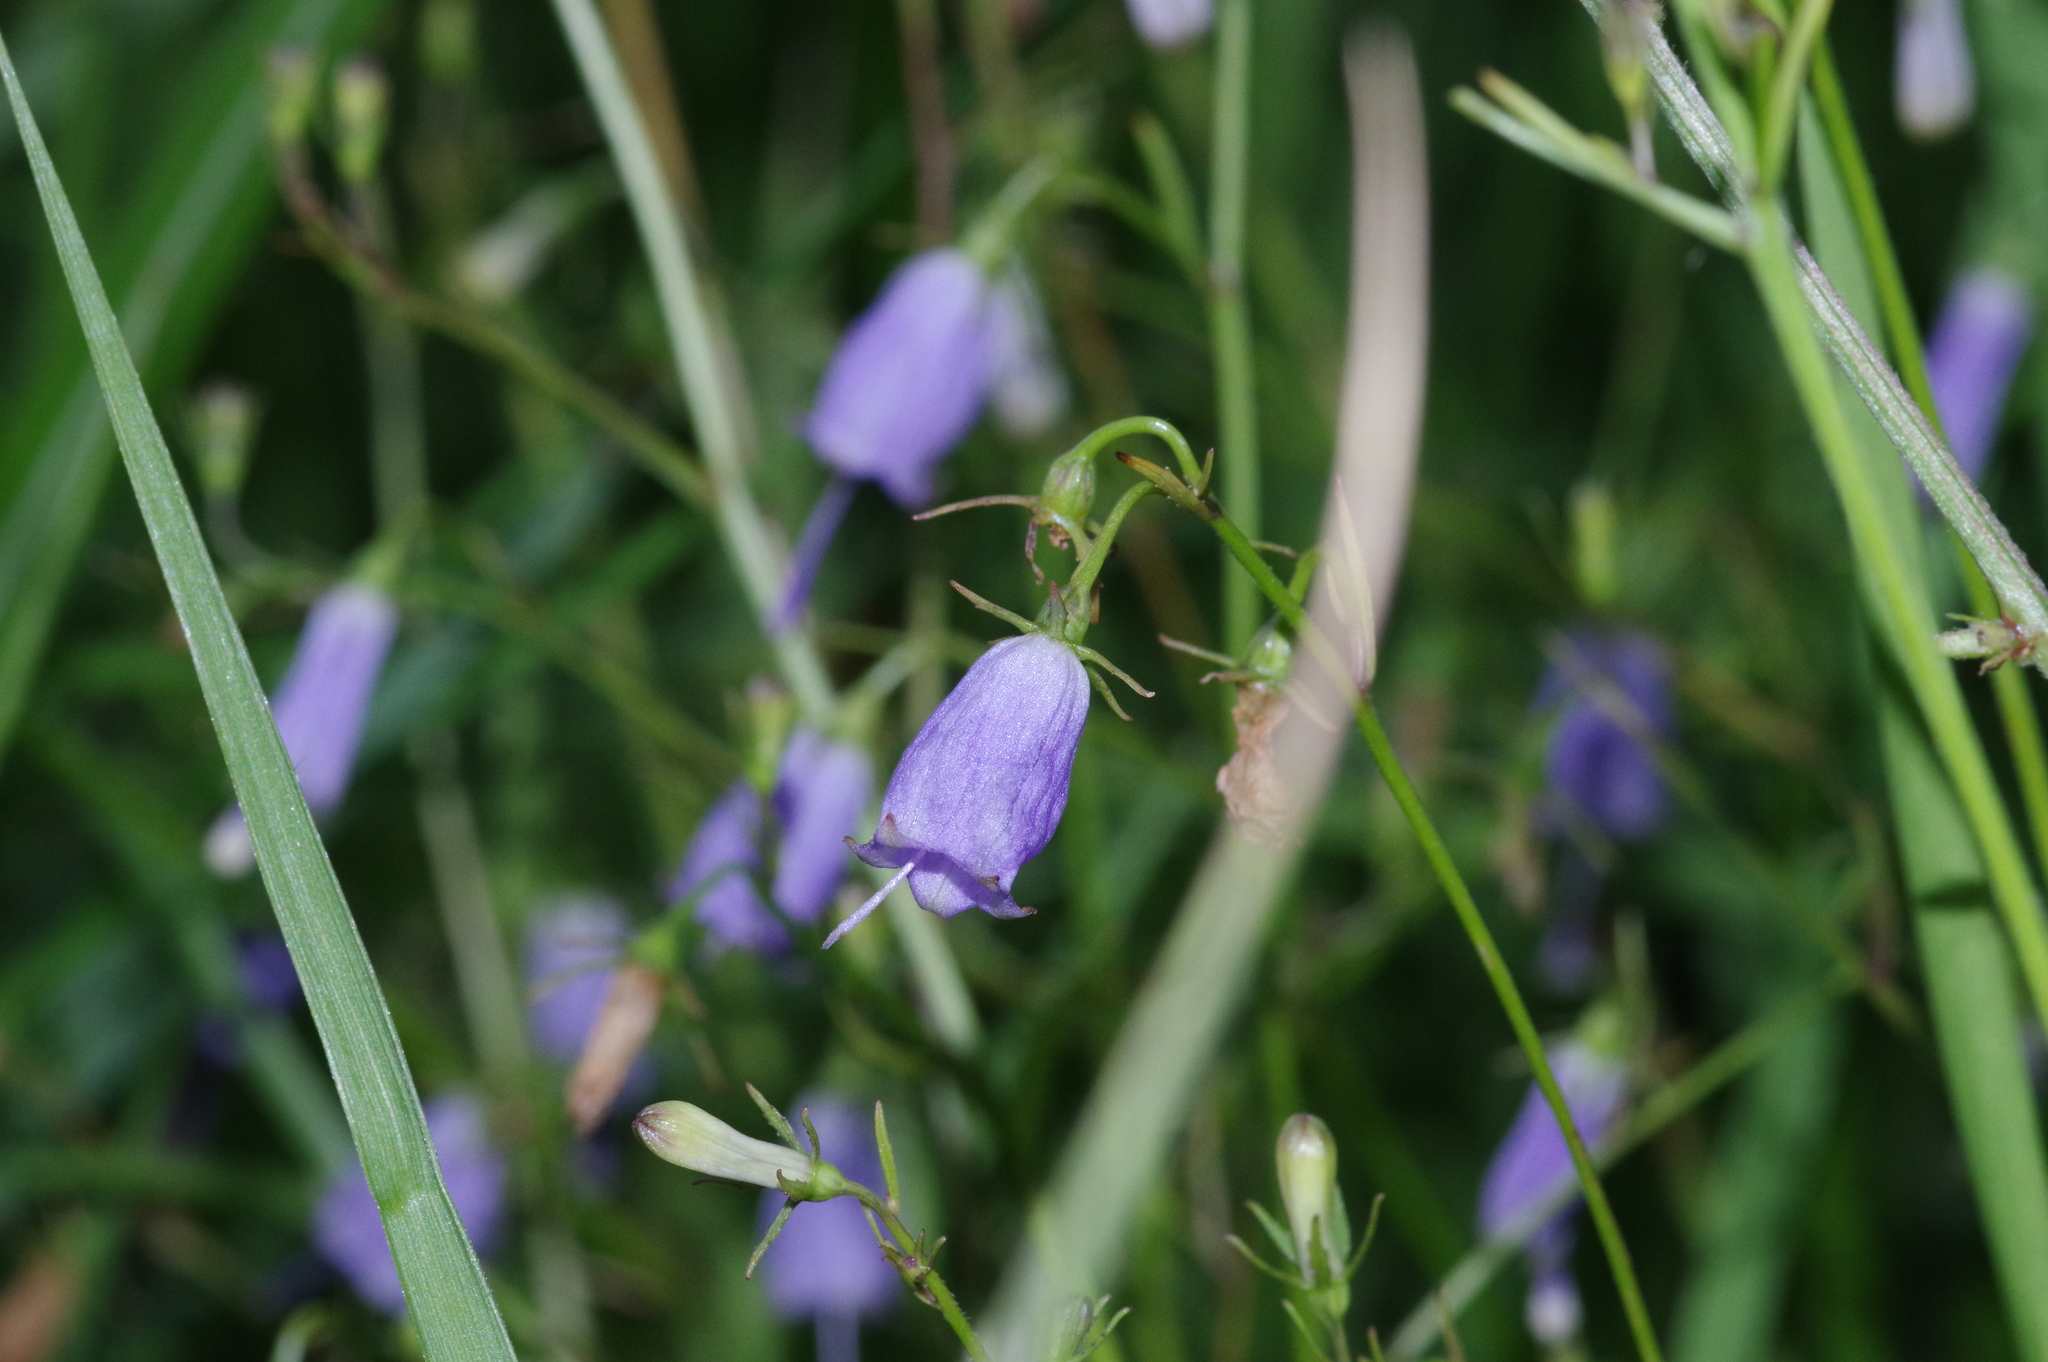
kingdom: Plantae
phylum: Tracheophyta
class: Magnoliopsida
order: Asterales
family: Campanulaceae
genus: Adenophora
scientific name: Adenophora triphylla
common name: Giant-bellflower
